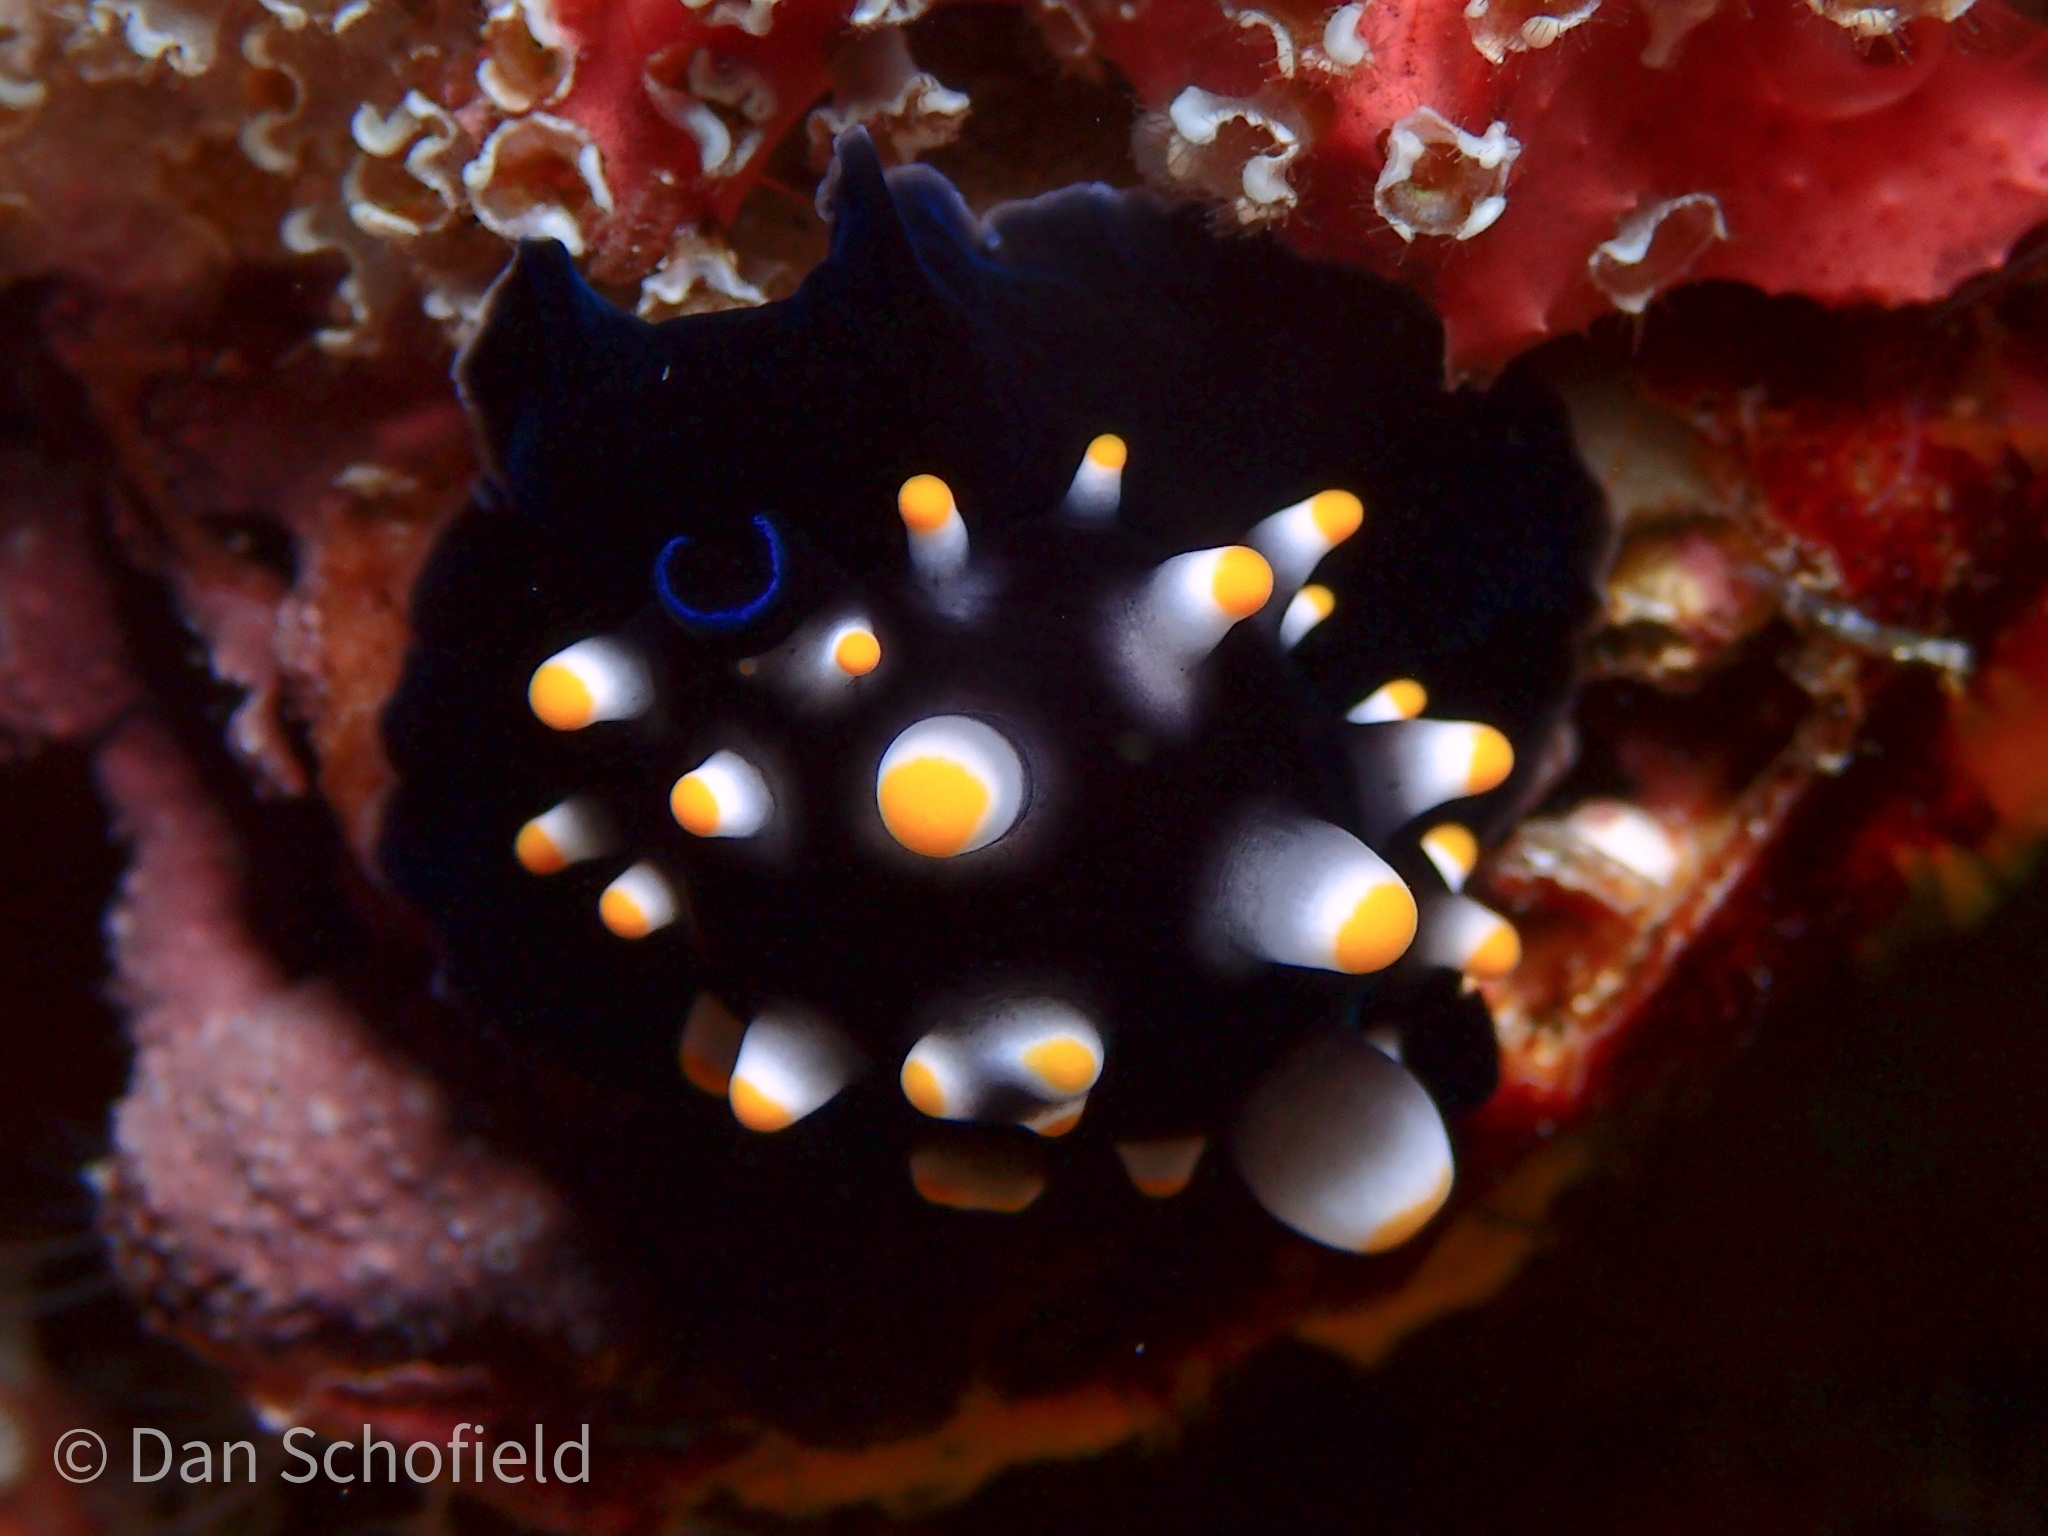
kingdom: Animalia
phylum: Mollusca
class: Gastropoda
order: Littorinimorpha
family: Ovulidae
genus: Ovula
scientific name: Ovula ovum
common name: Common egg cowrie
